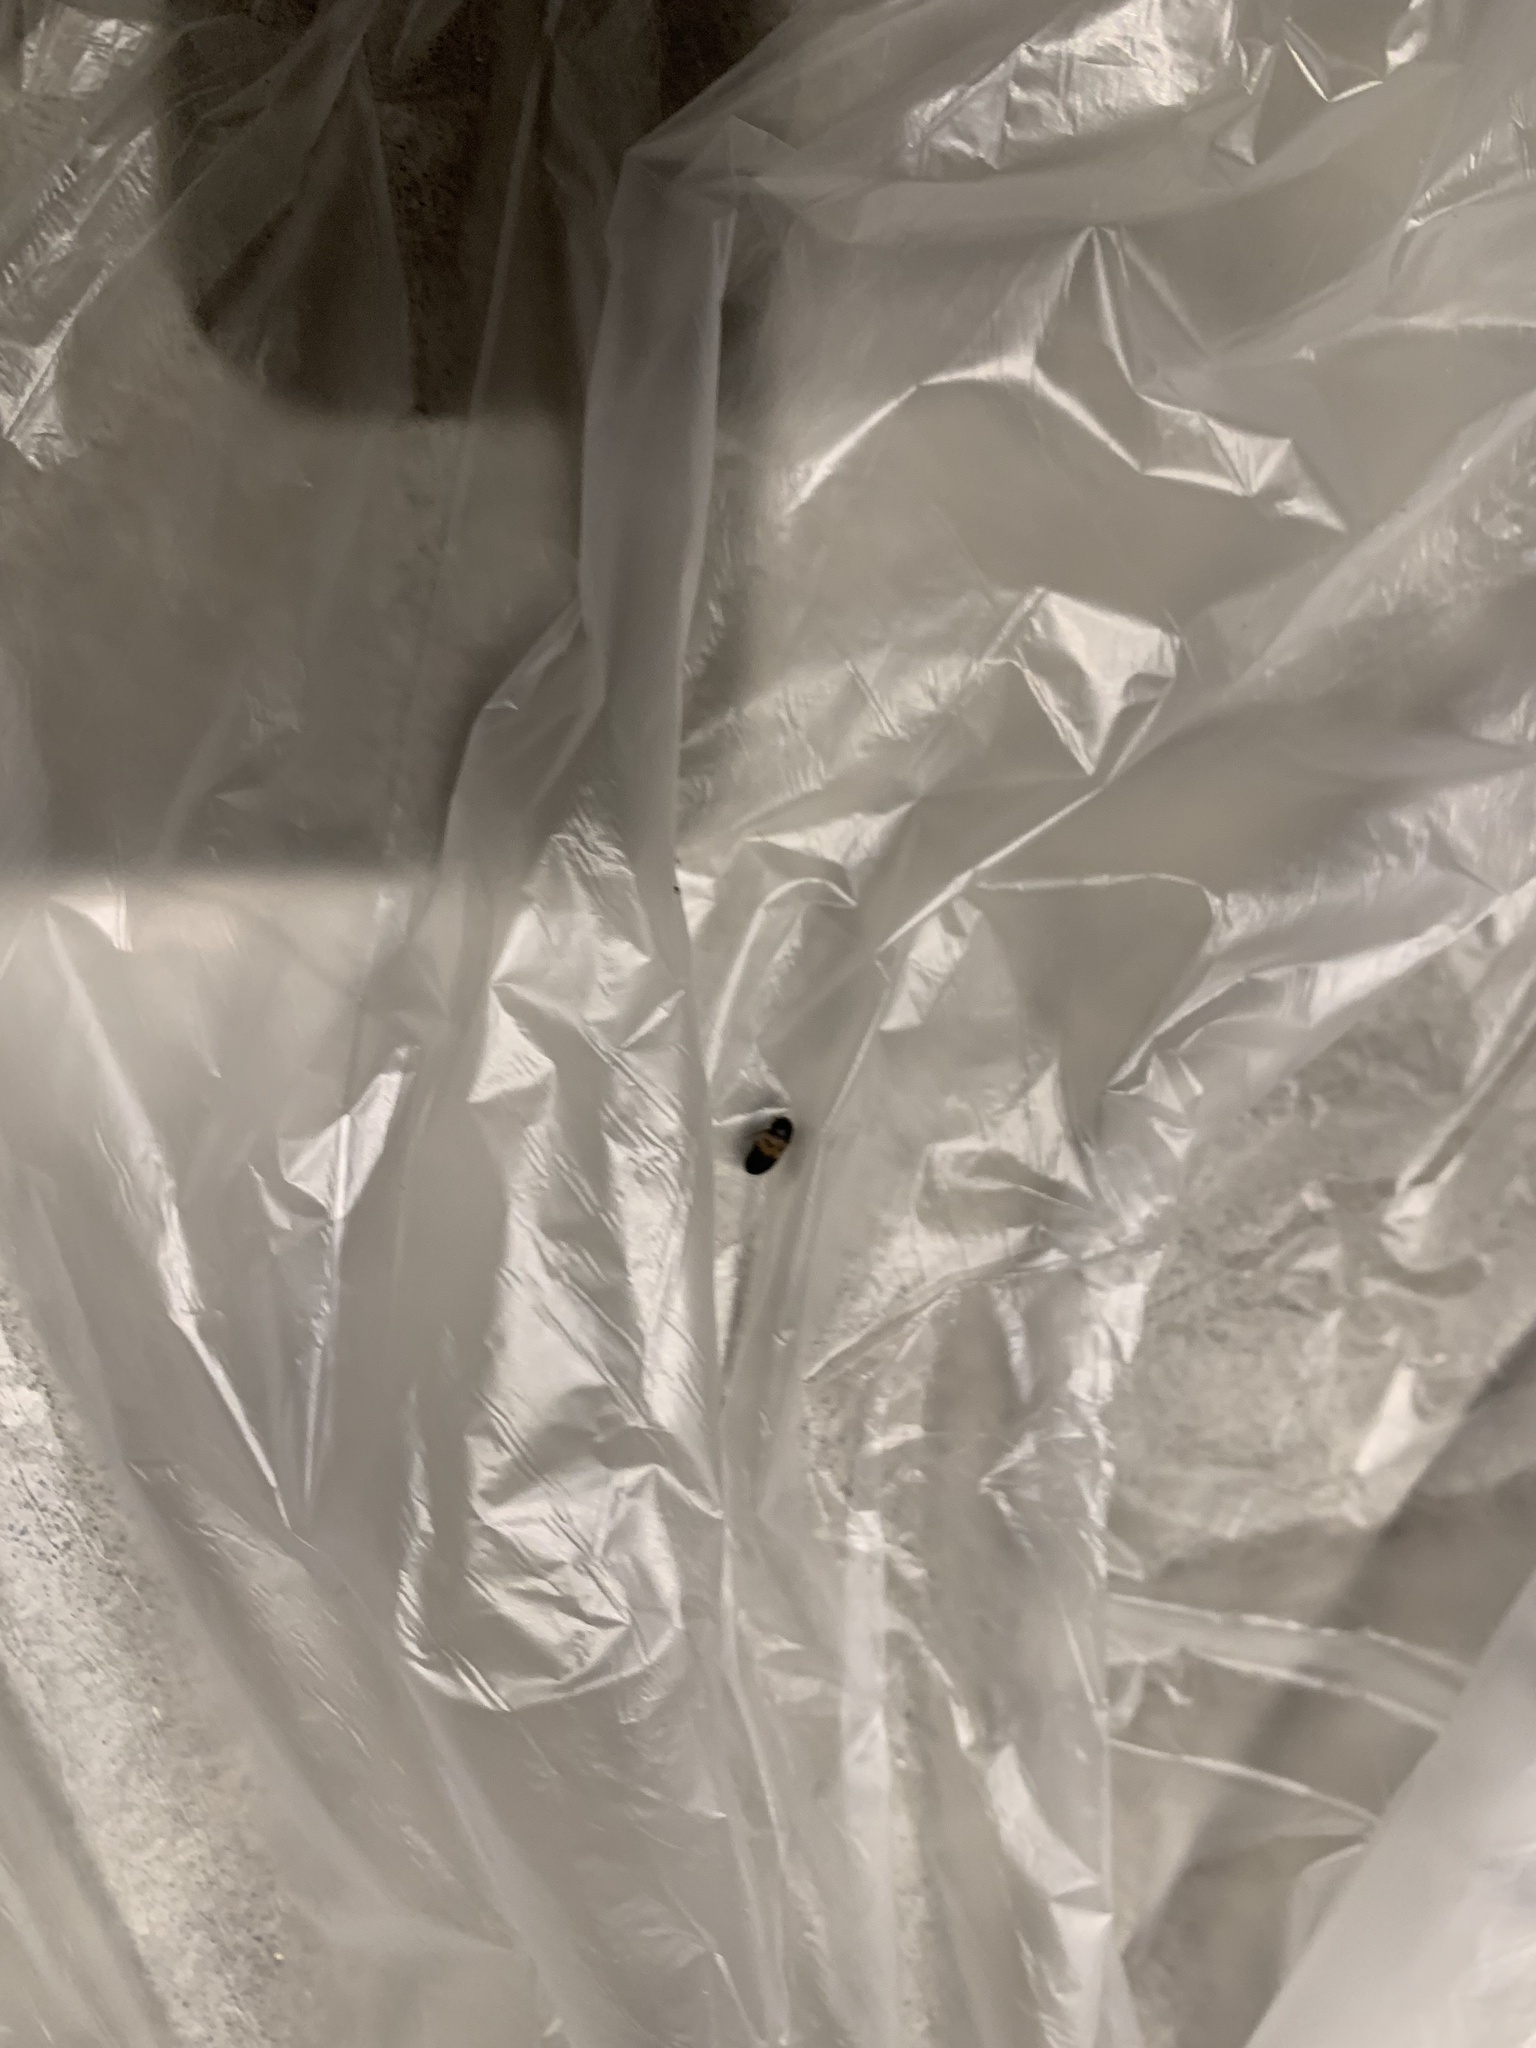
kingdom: Animalia
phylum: Arthropoda
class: Insecta
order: Coleoptera
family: Dermestidae
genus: Dermestes
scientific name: Dermestes lardarius
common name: Larder beetle
